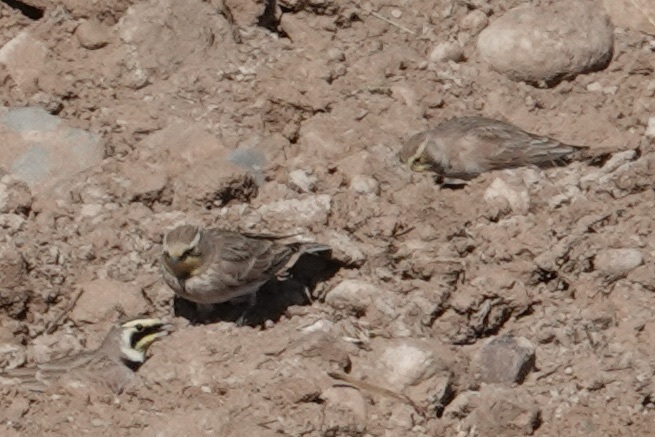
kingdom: Animalia
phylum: Chordata
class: Aves
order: Passeriformes
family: Alaudidae
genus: Eremophila
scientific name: Eremophila alpestris
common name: Horned lark
